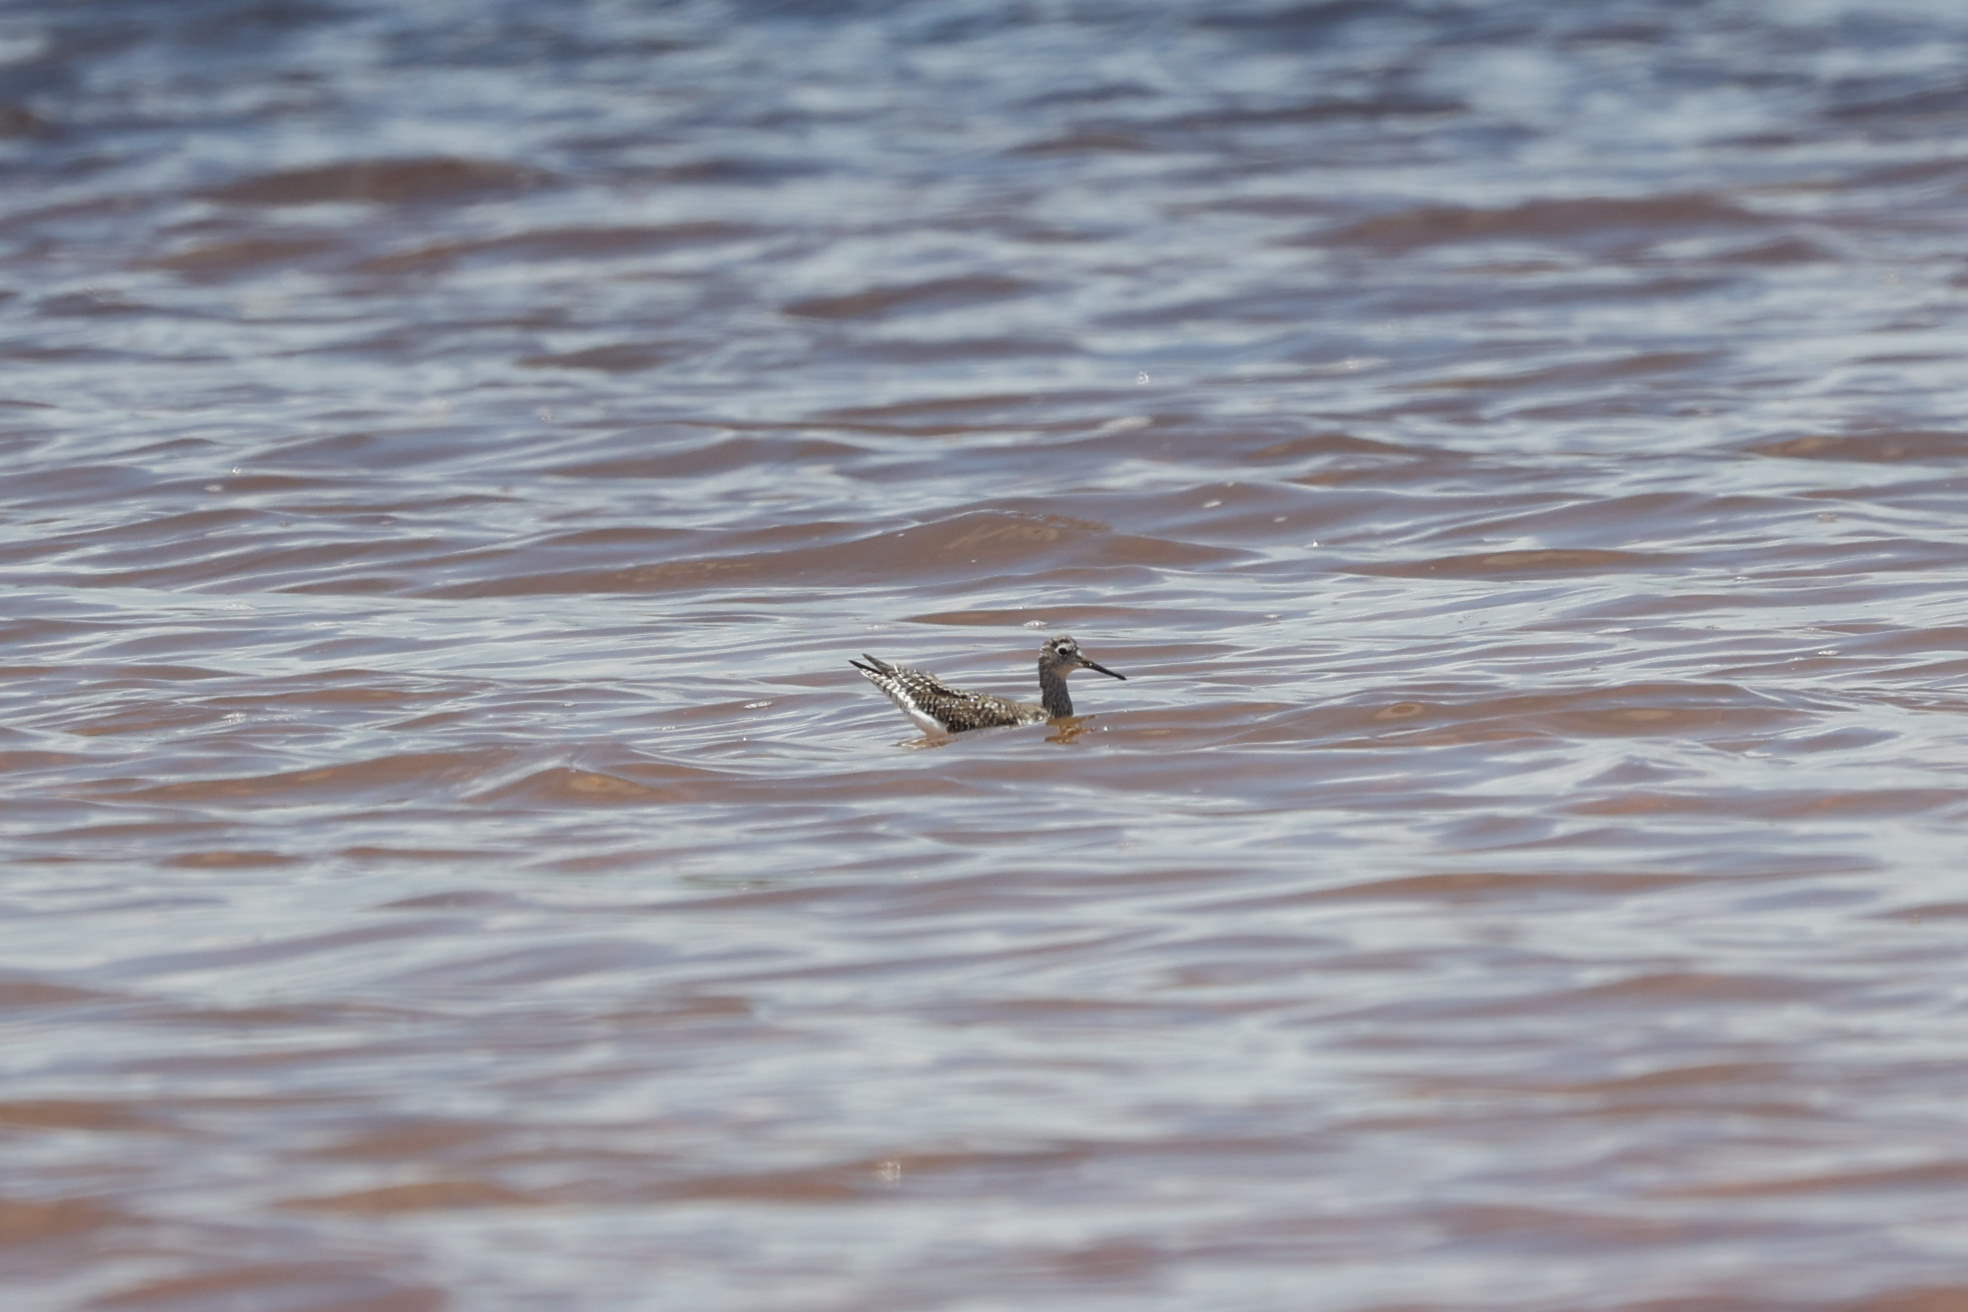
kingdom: Animalia
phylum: Chordata
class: Aves
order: Charadriiformes
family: Scolopacidae
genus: Tringa
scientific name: Tringa flavipes
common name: Lesser yellowlegs
